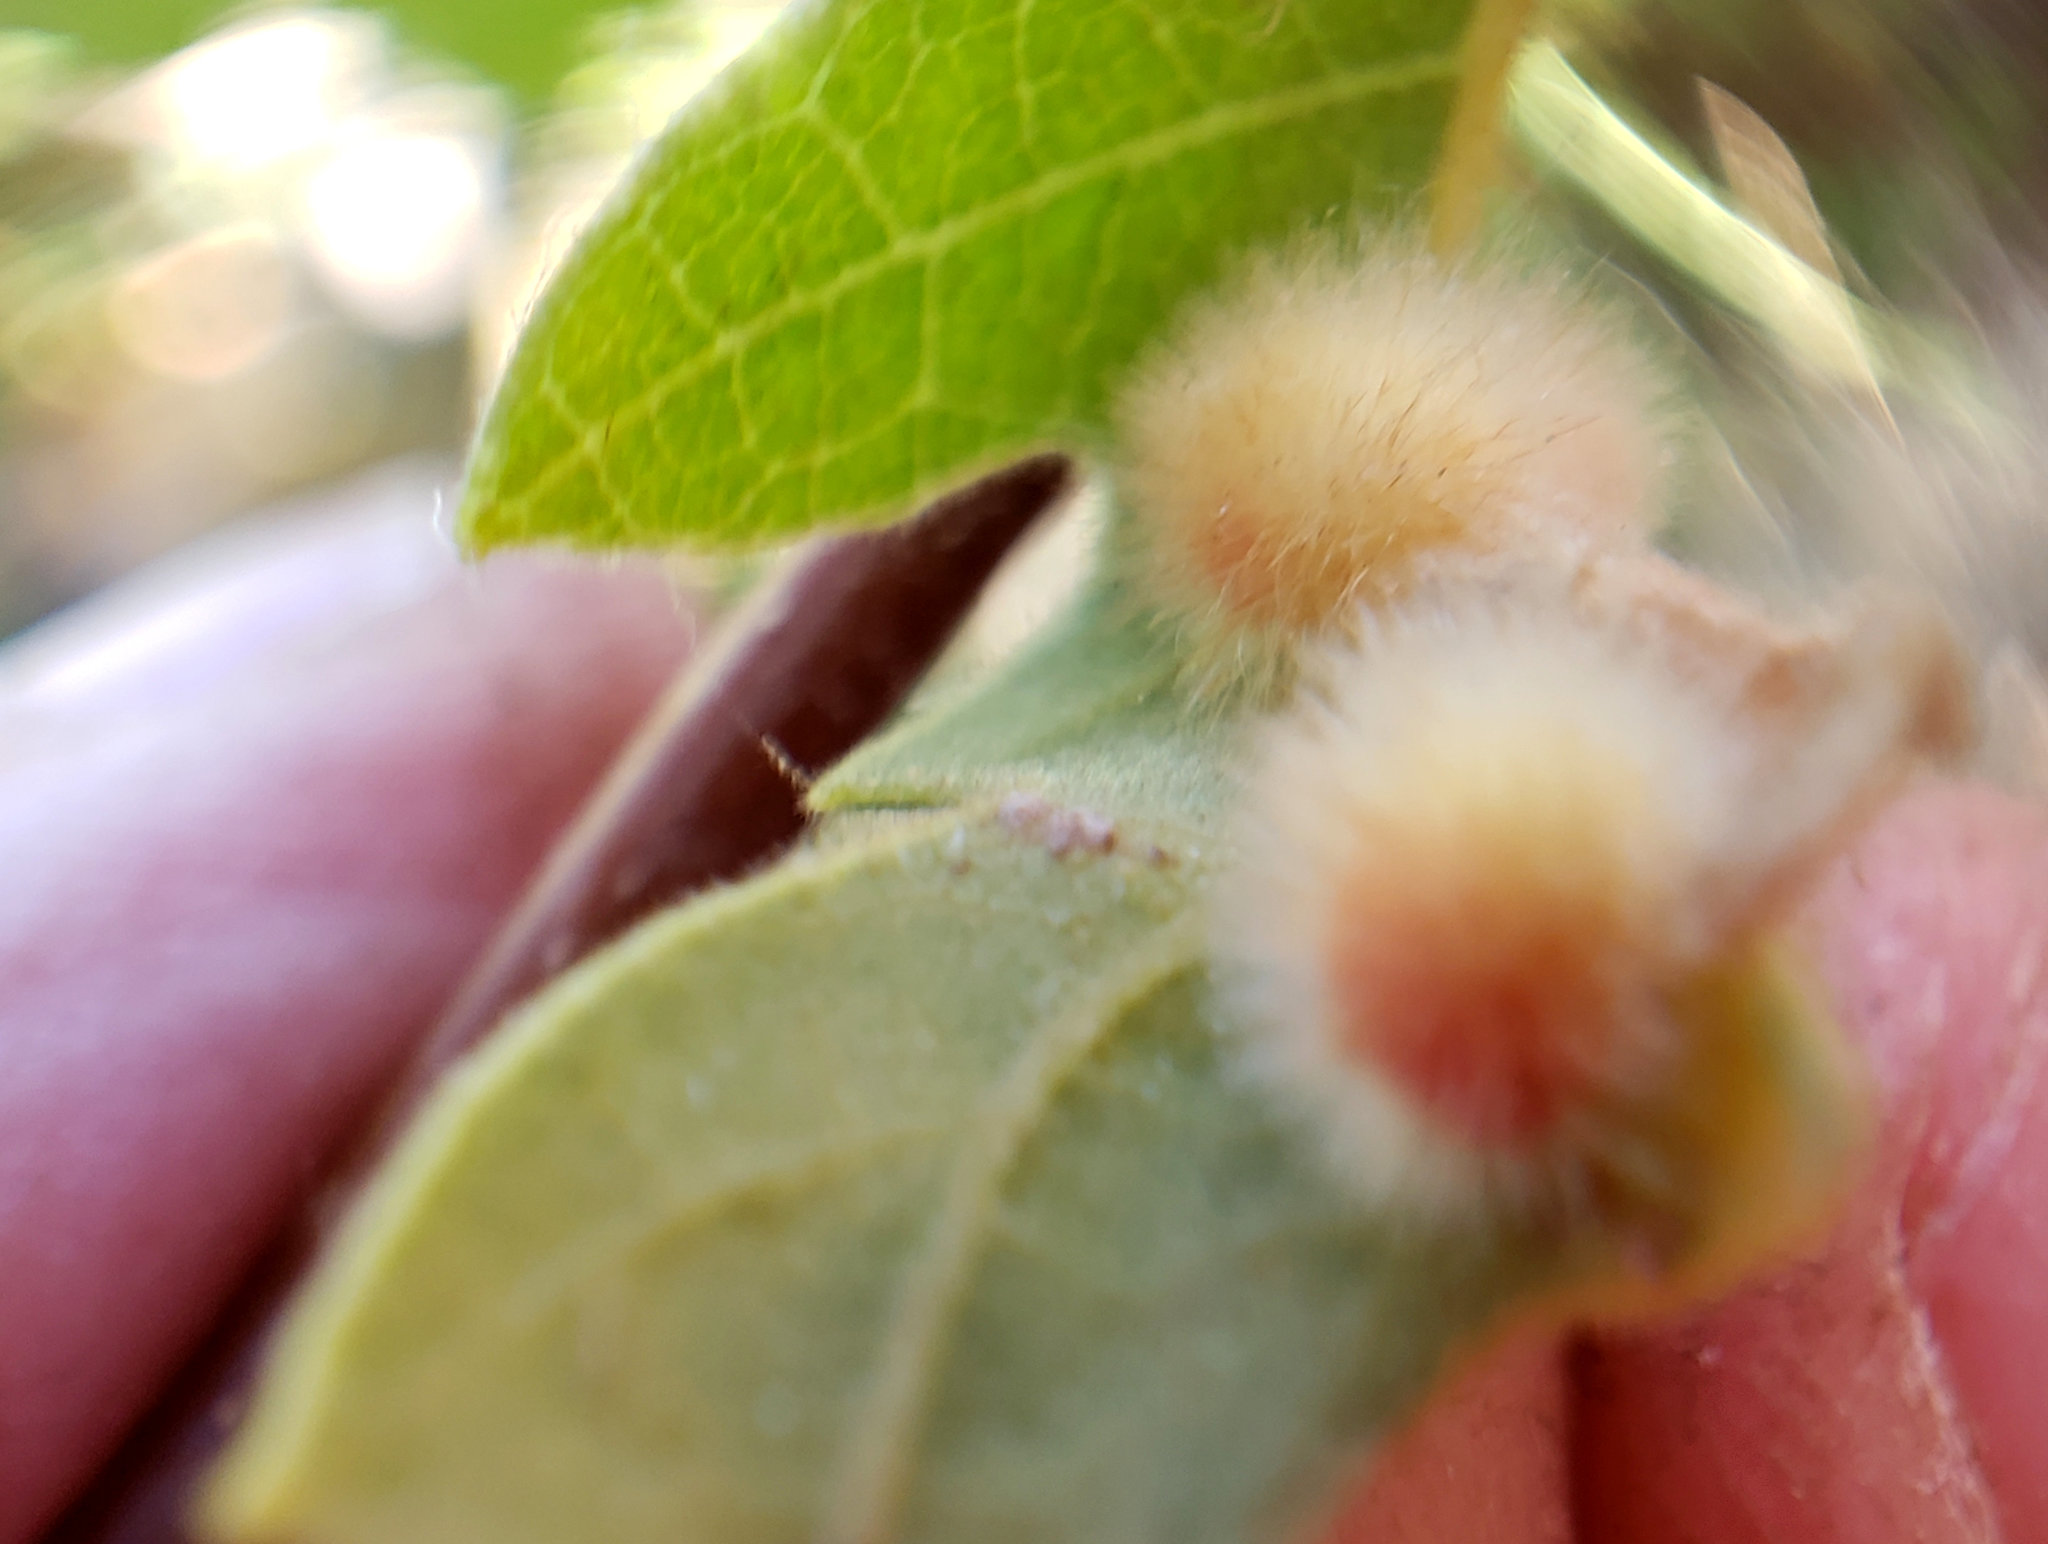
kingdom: Animalia
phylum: Arthropoda
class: Insecta
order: Hymenoptera
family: Cynipidae
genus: Atrusca
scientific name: Atrusca
